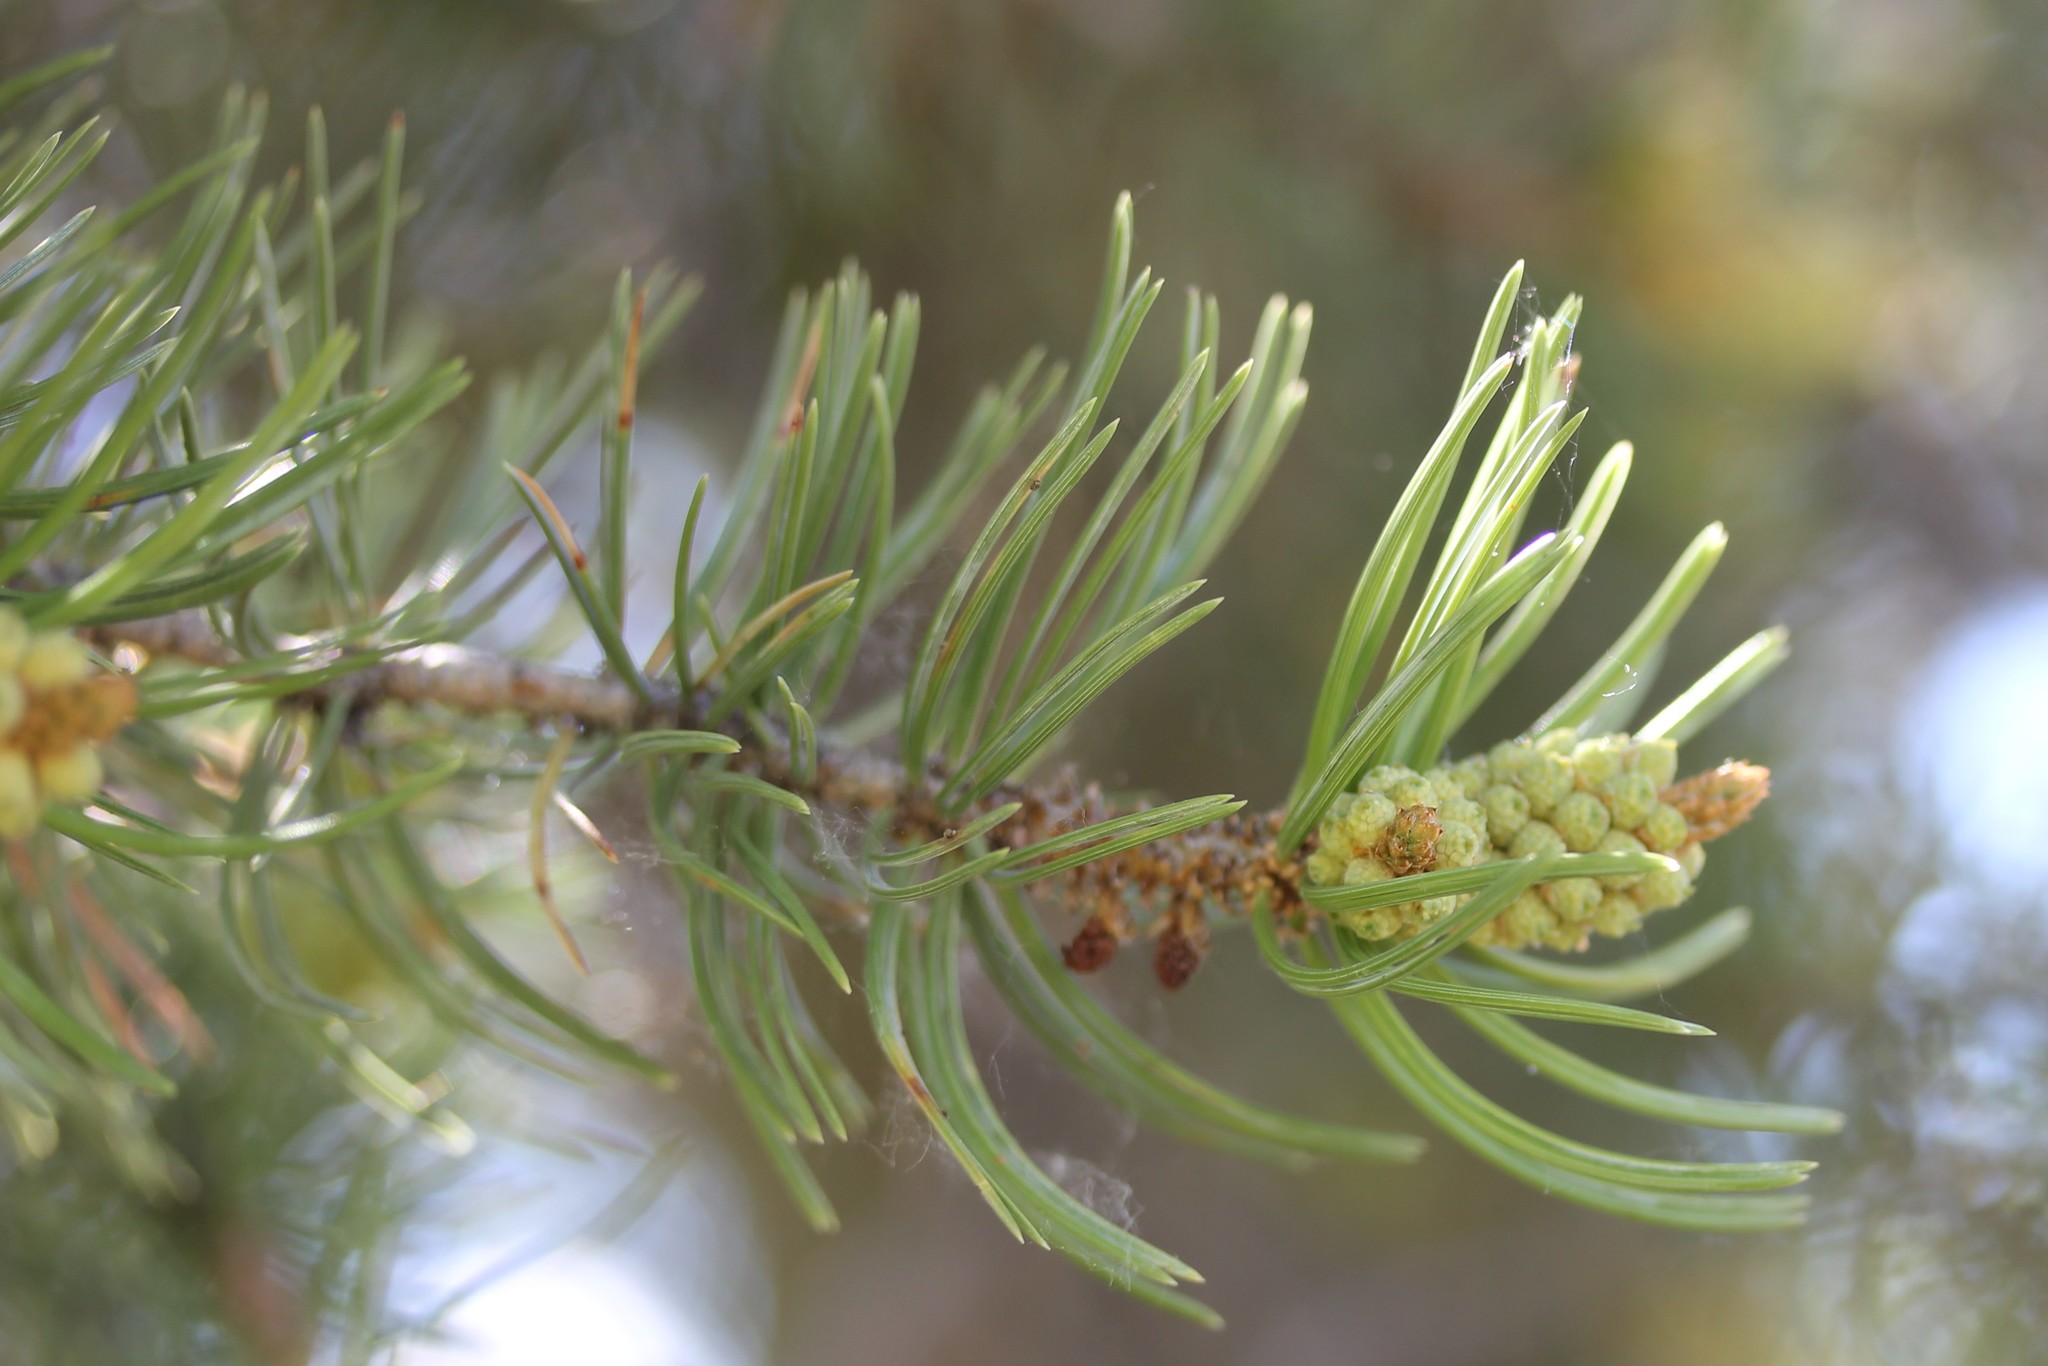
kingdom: Plantae
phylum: Tracheophyta
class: Pinopsida
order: Pinales
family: Pinaceae
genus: Pinus
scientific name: Pinus edulis
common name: Colorado pinyon
